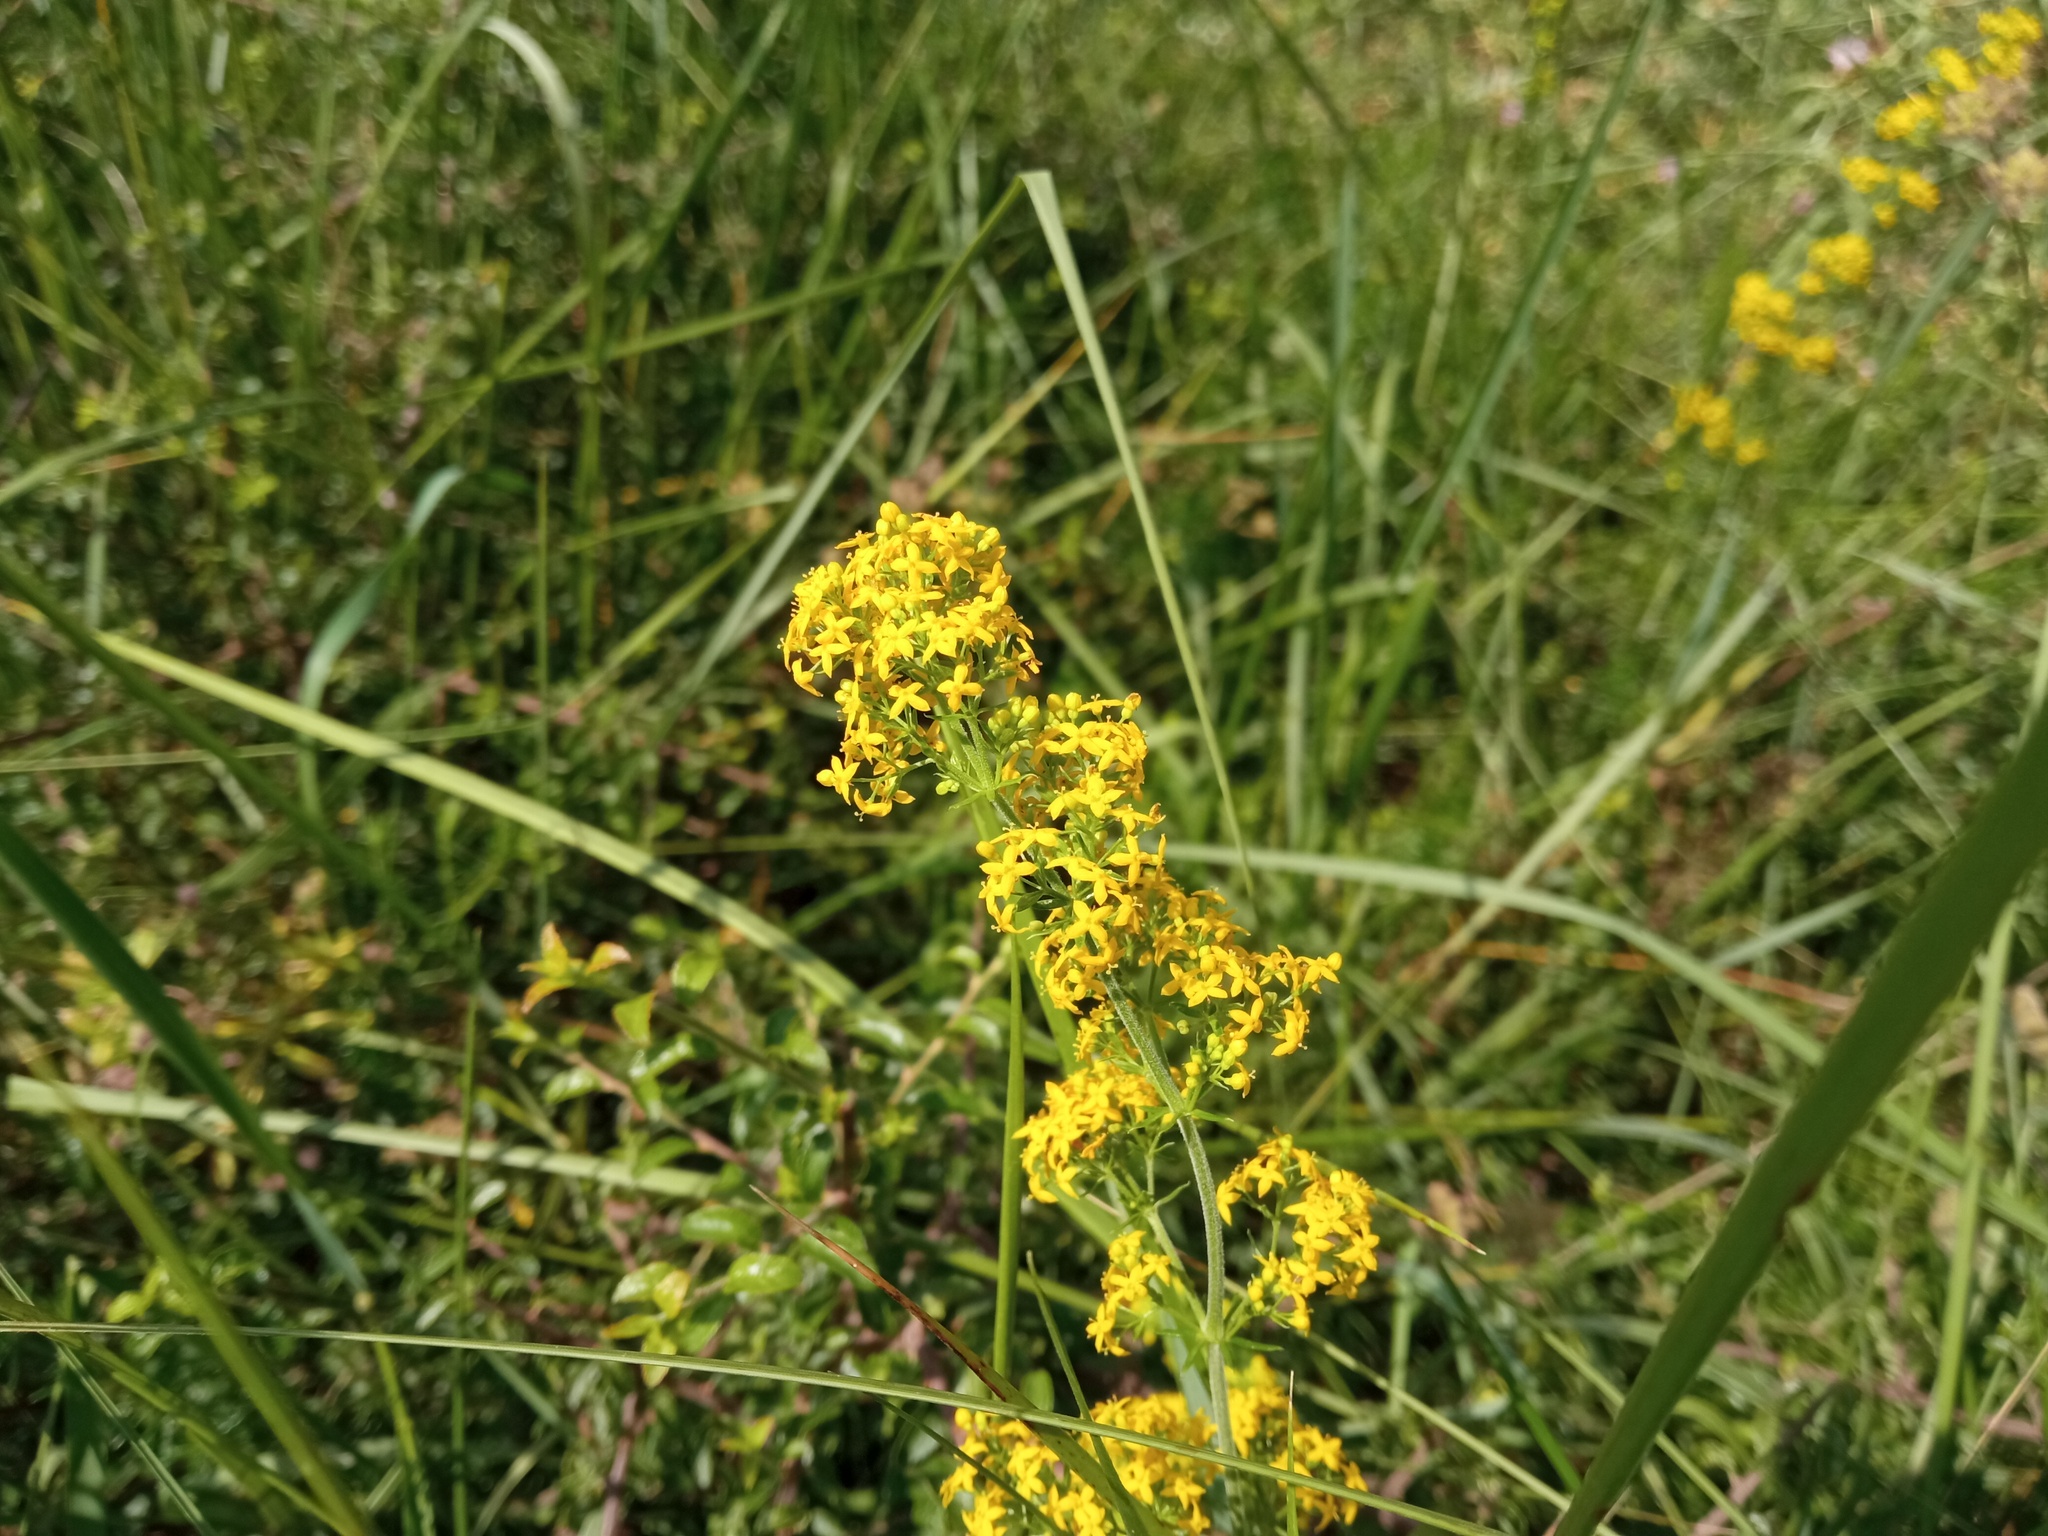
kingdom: Plantae
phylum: Tracheophyta
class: Magnoliopsida
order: Gentianales
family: Rubiaceae
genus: Galium
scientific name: Galium verum
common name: Lady's bedstraw
